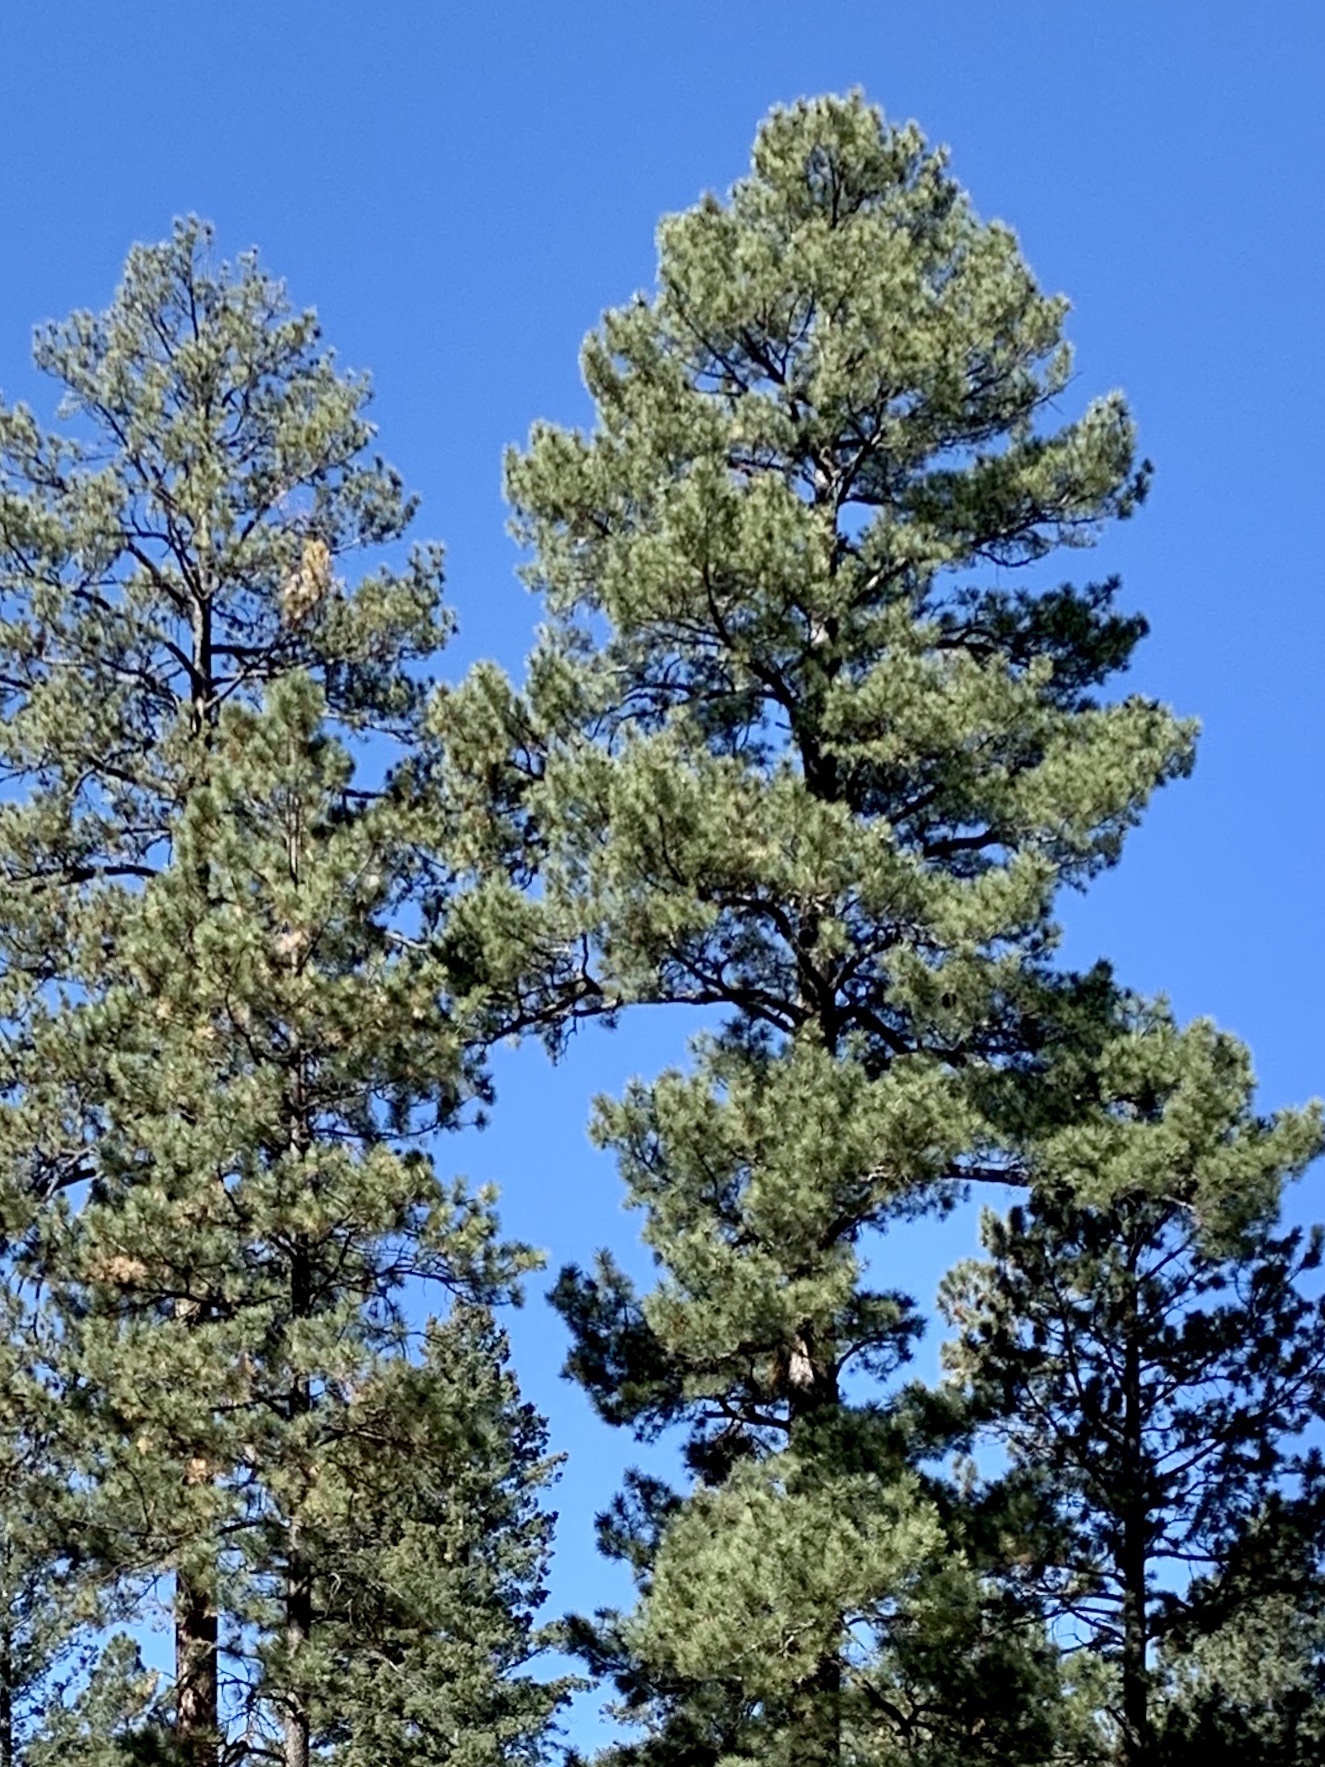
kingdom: Plantae
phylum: Tracheophyta
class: Pinopsida
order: Pinales
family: Pinaceae
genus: Pinus
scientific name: Pinus ponderosa
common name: Western yellow-pine
